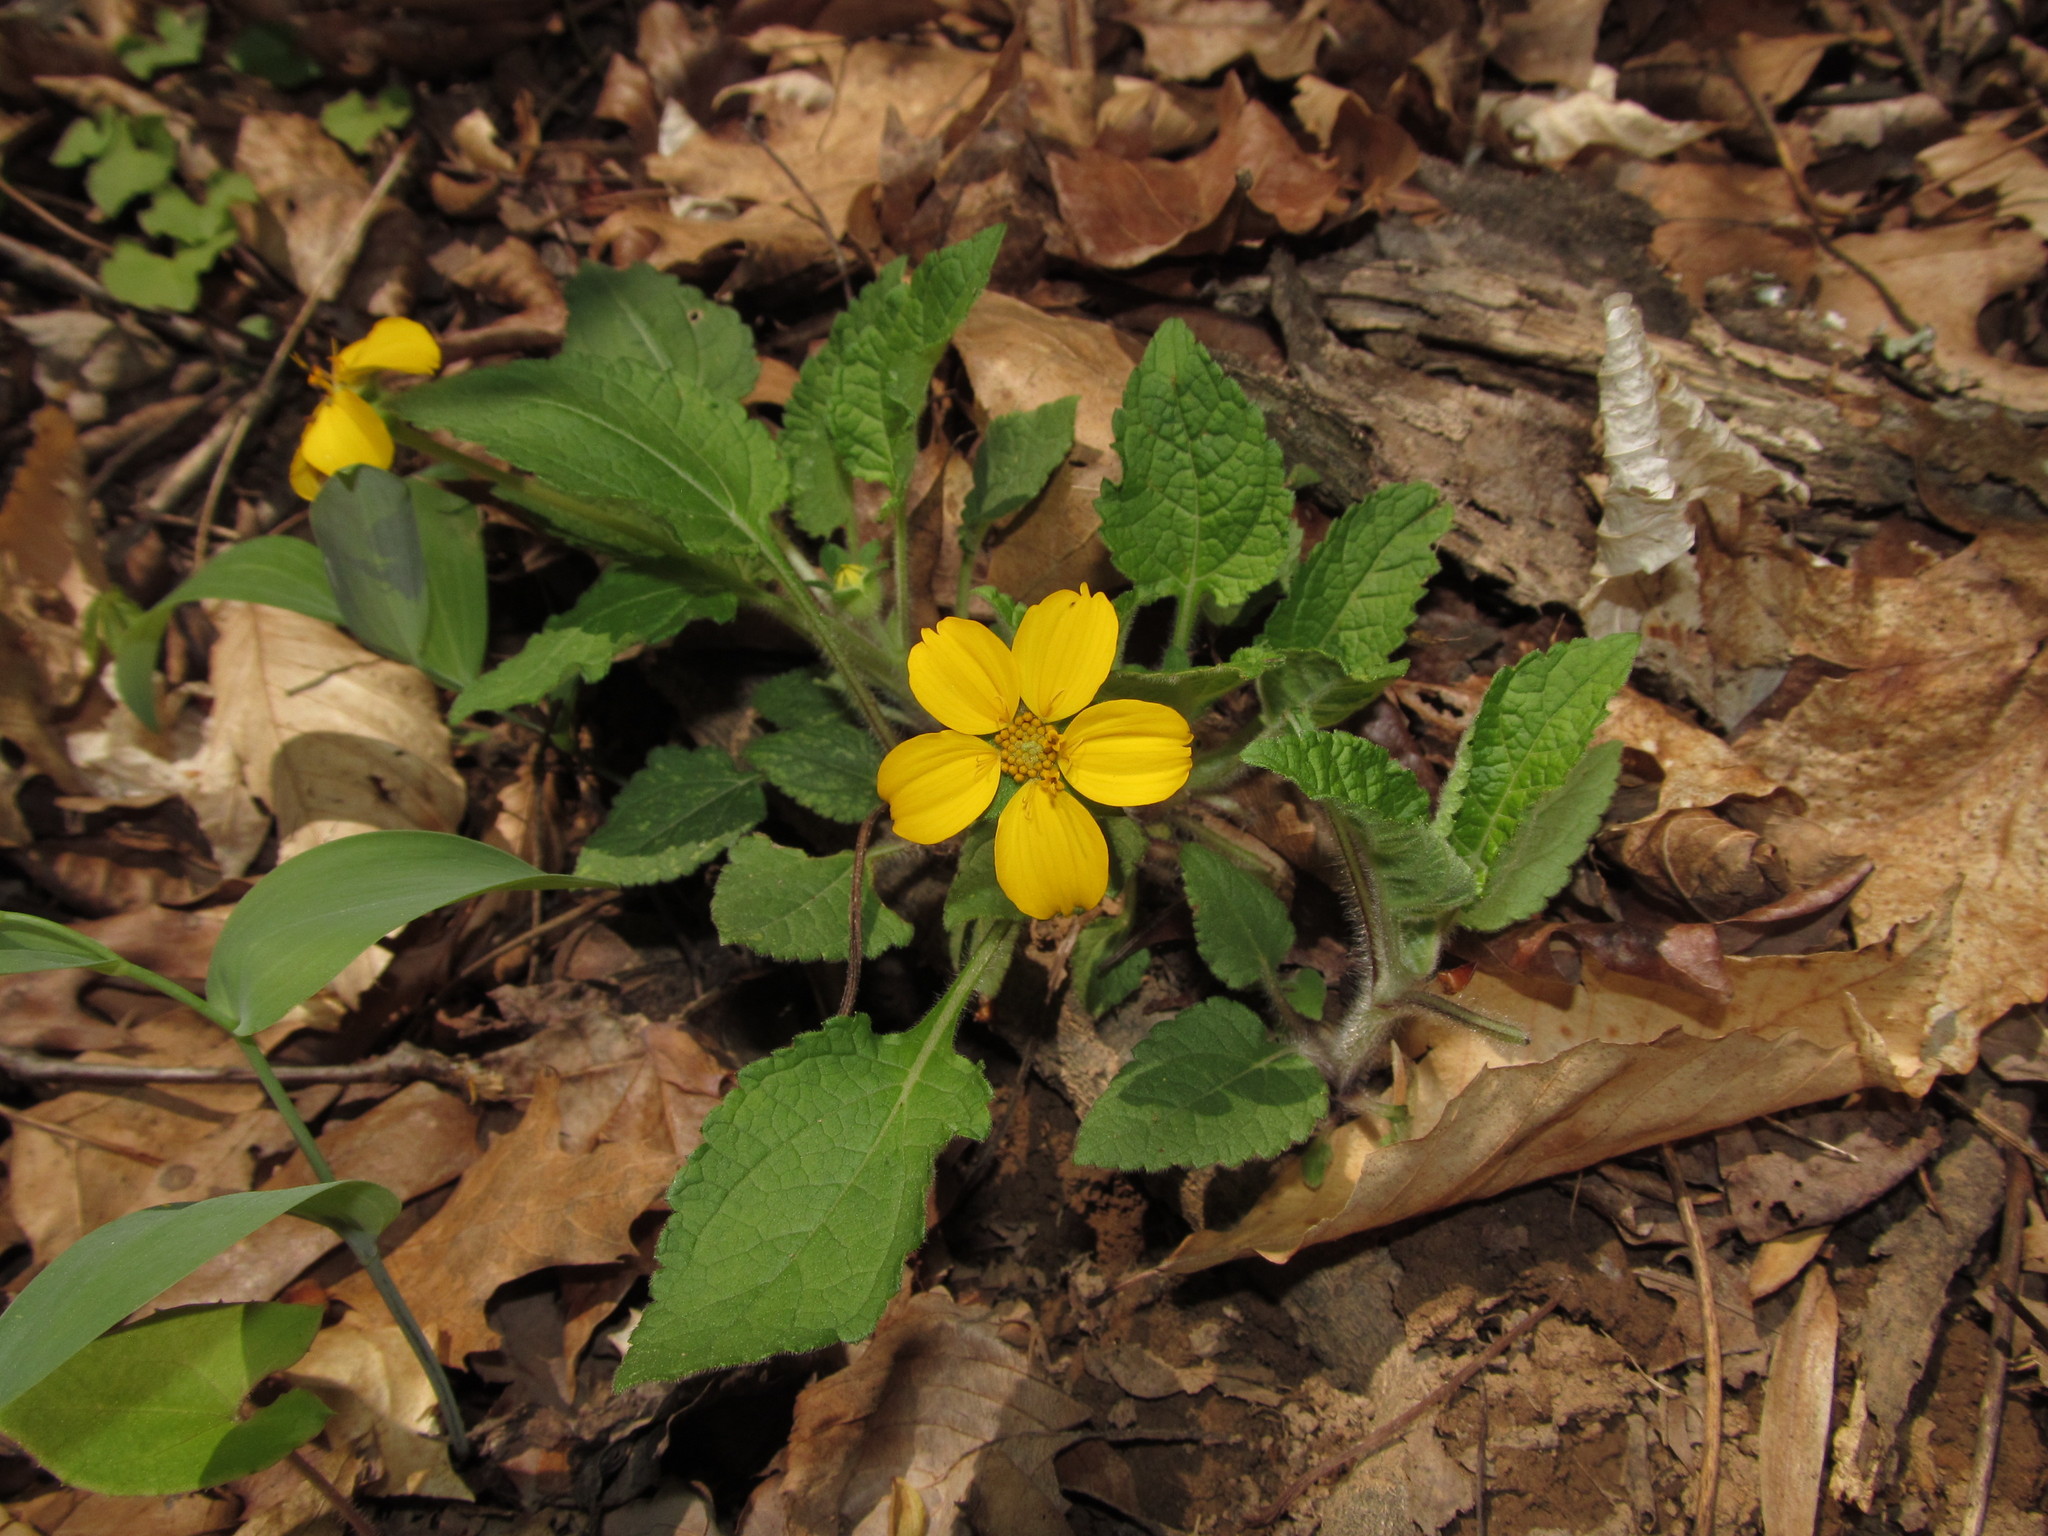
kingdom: Plantae
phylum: Tracheophyta
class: Magnoliopsida
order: Asterales
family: Asteraceae
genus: Chrysogonum
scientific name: Chrysogonum virginianum
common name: Golden-knee
